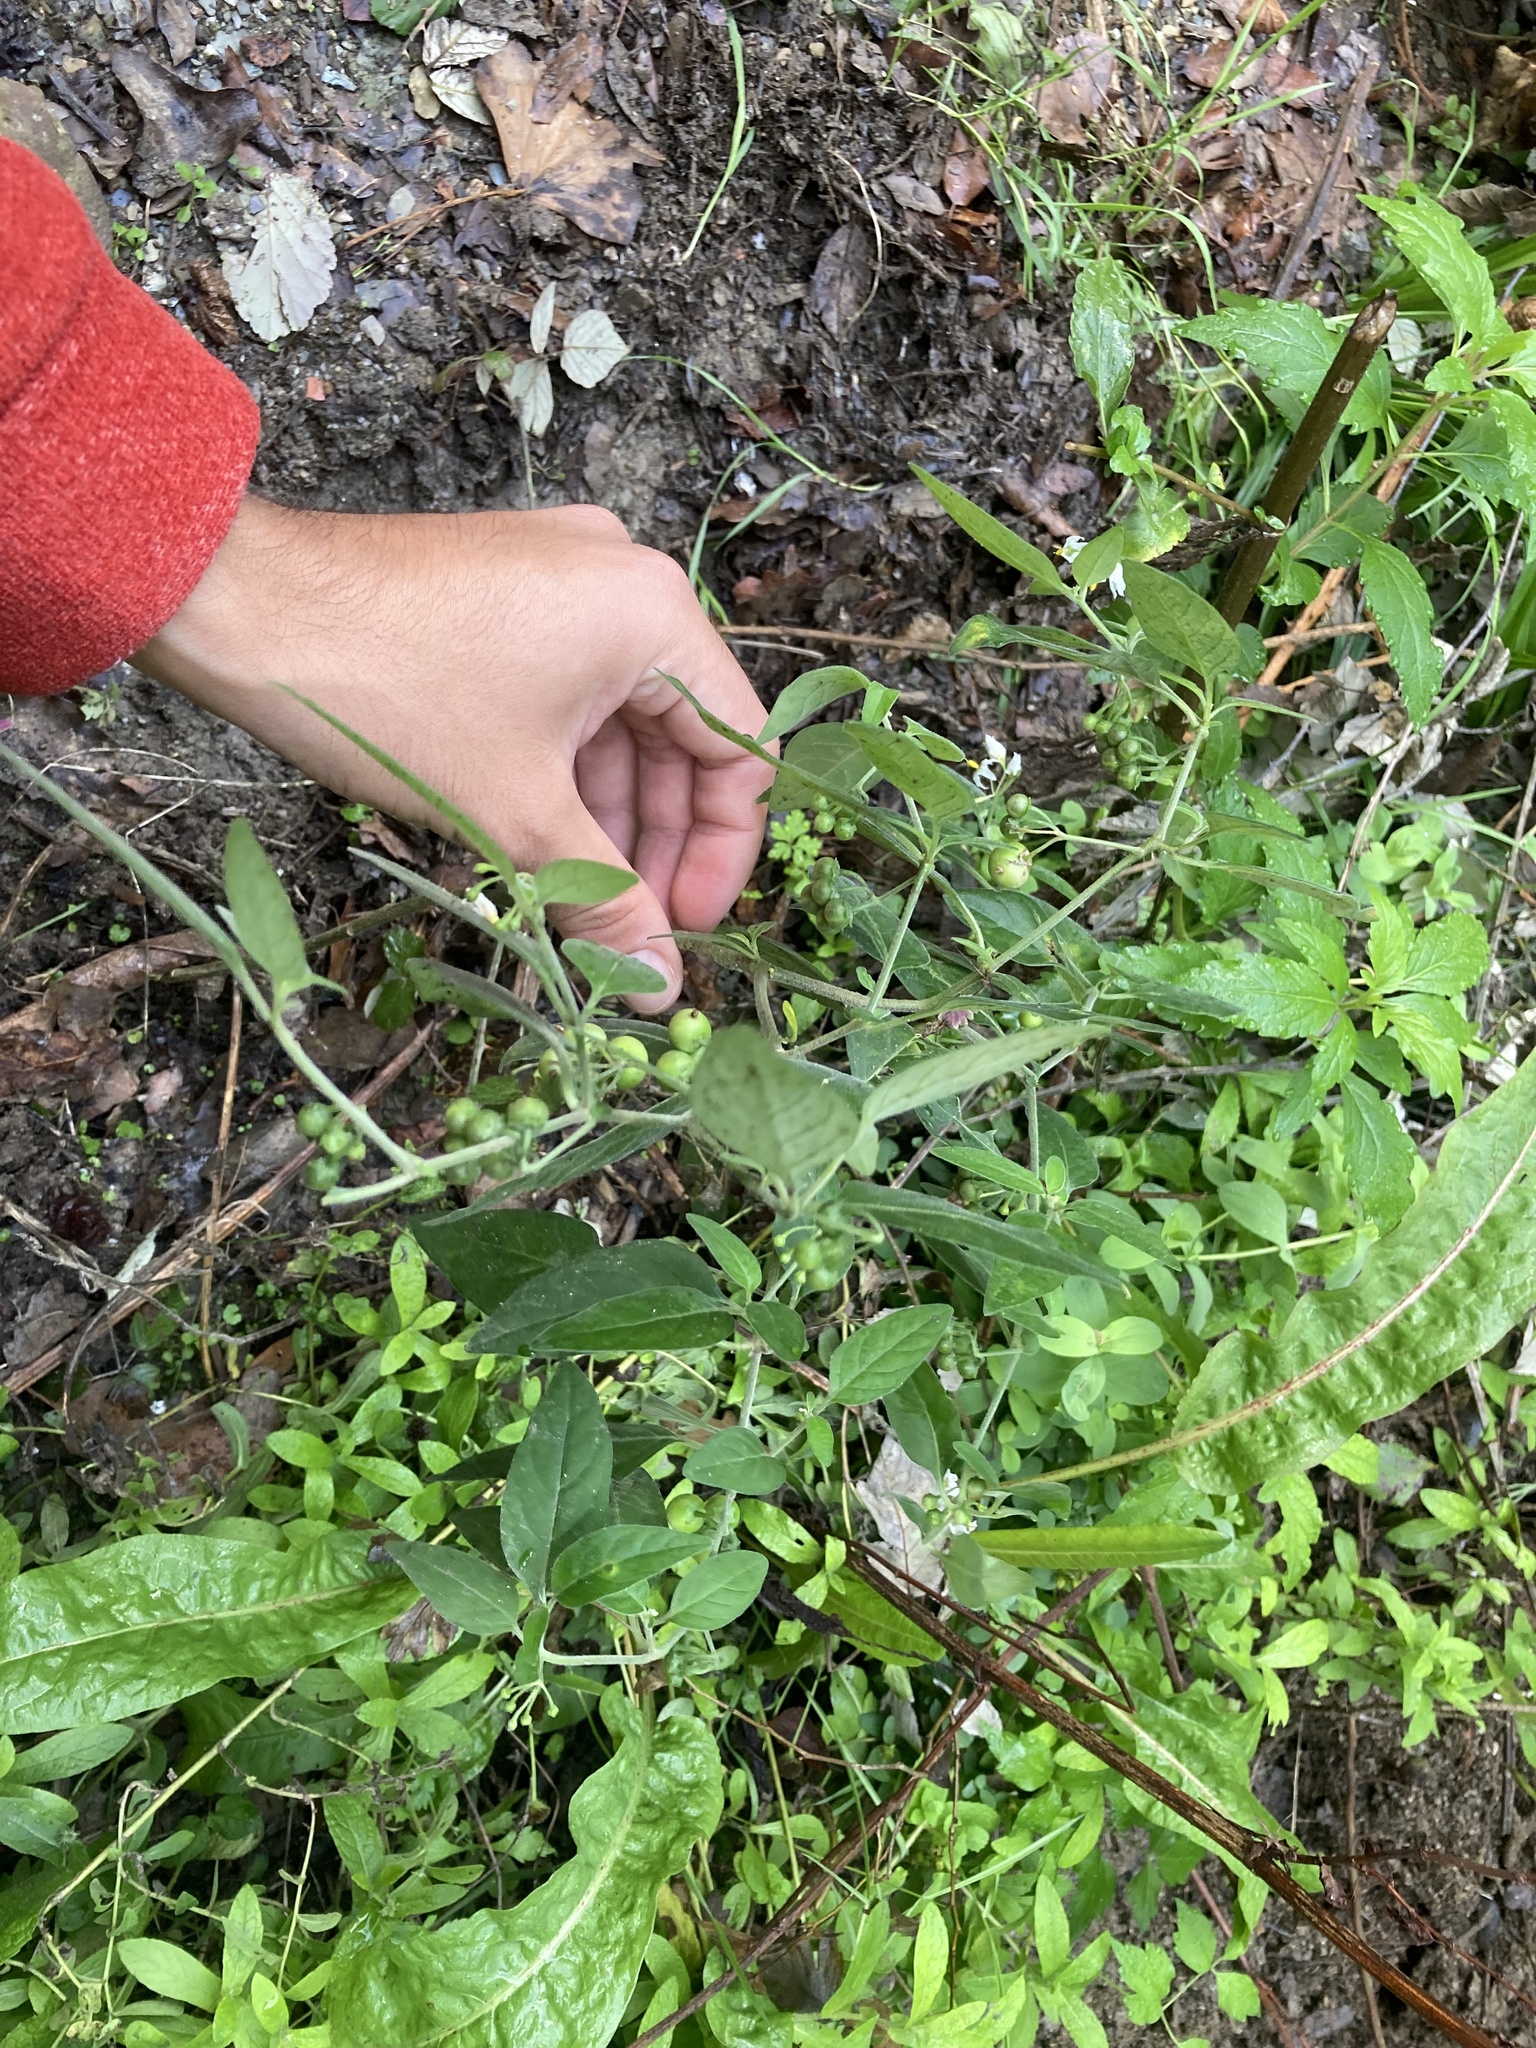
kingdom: Plantae
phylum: Tracheophyta
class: Magnoliopsida
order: Solanales
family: Solanaceae
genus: Solanum
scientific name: Solanum chenopodioides
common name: Tall nightshade
